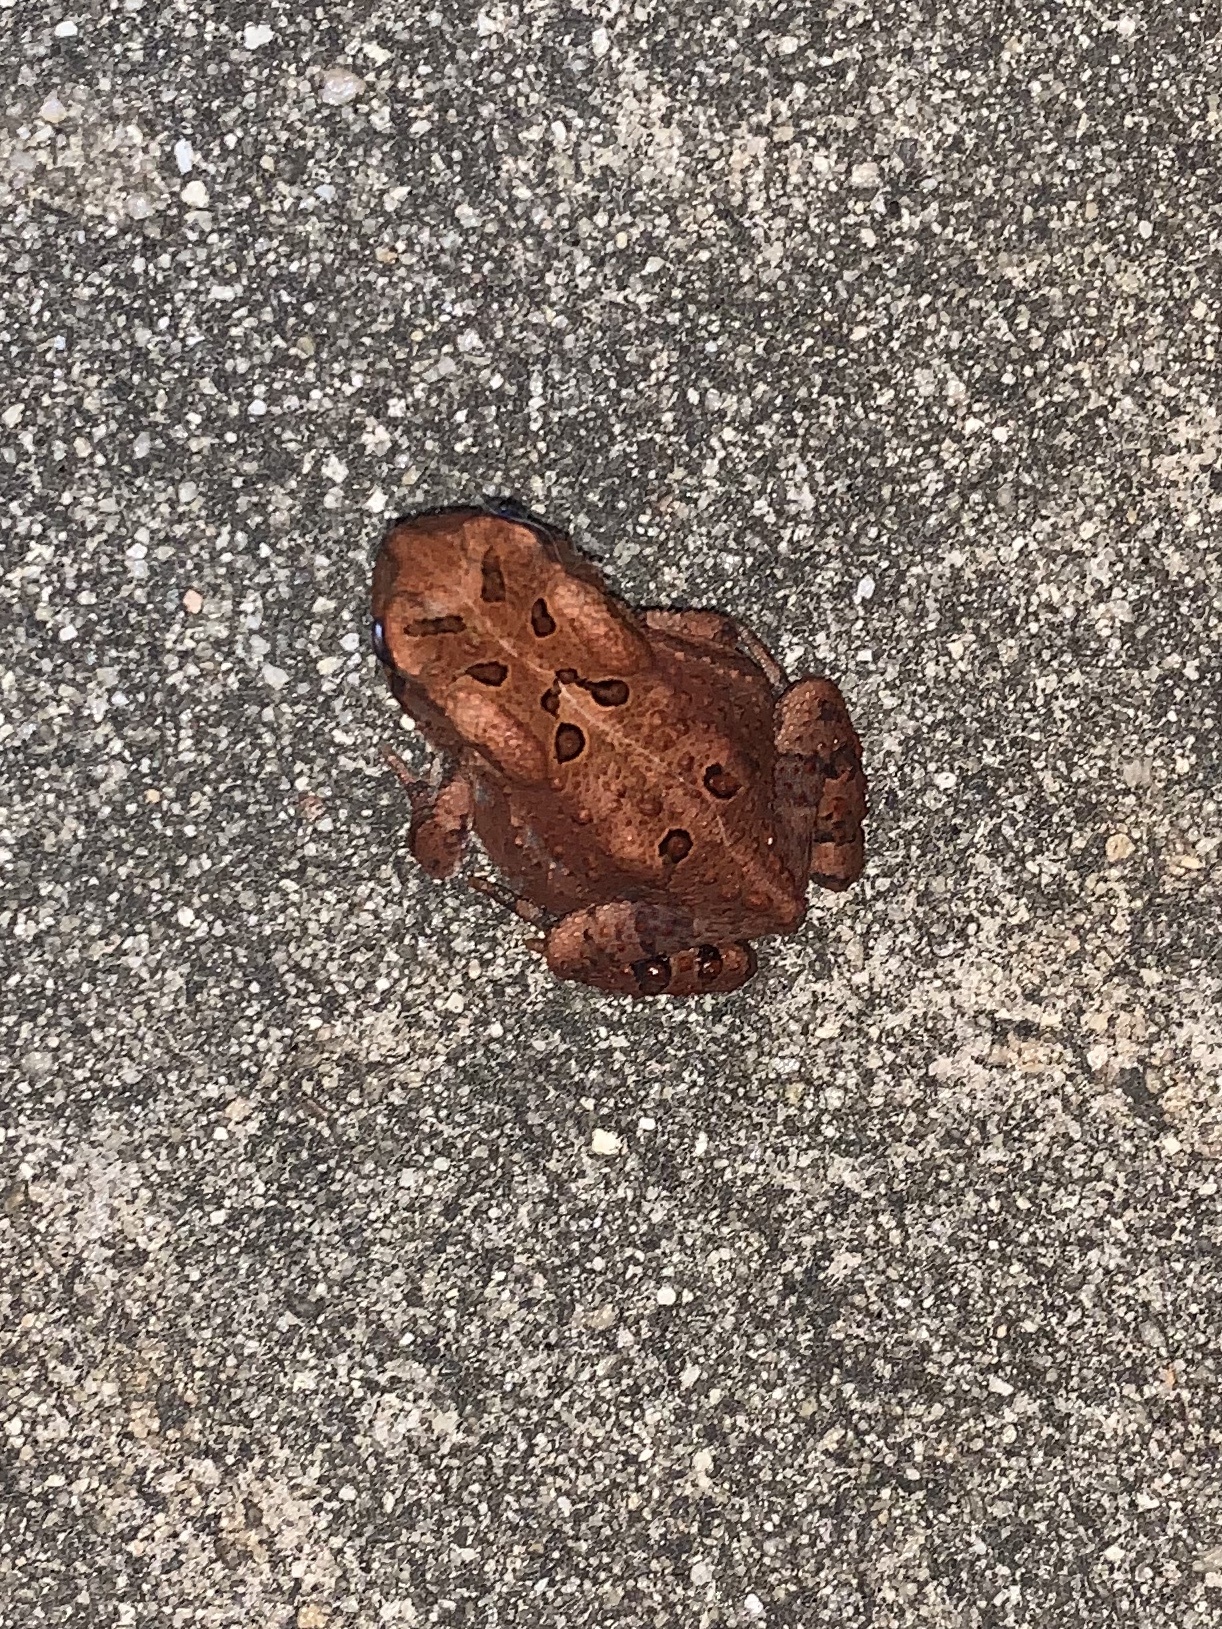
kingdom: Animalia
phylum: Chordata
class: Amphibia
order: Anura
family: Bufonidae
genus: Anaxyrus
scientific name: Anaxyrus americanus
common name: American toad
